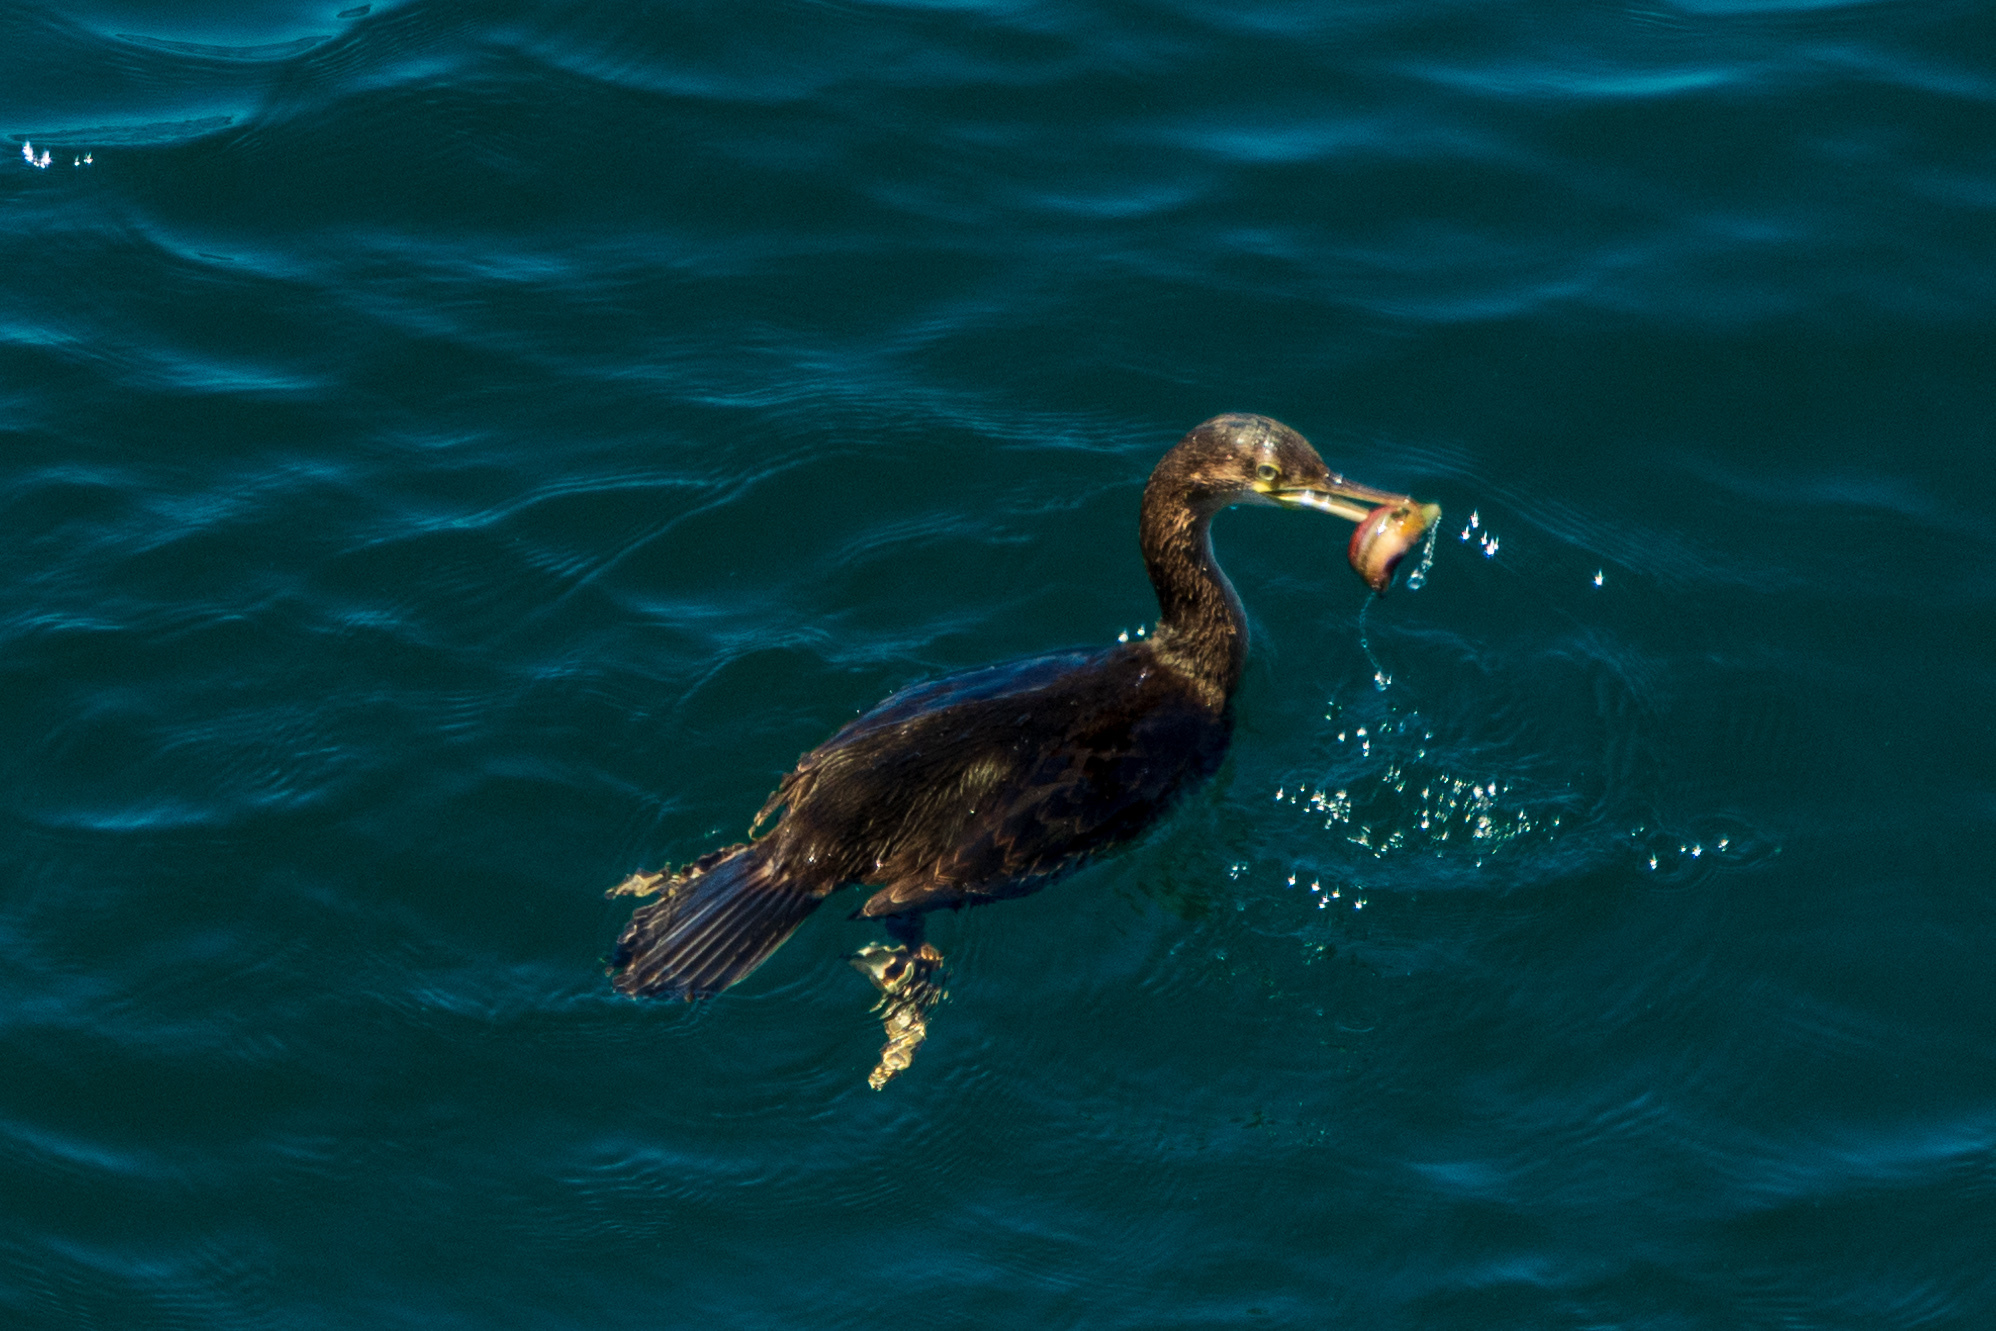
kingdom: Animalia
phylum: Chordata
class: Aves
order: Suliformes
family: Phalacrocoracidae
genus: Phalacrocorax
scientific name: Phalacrocorax aristotelis
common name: European shag
